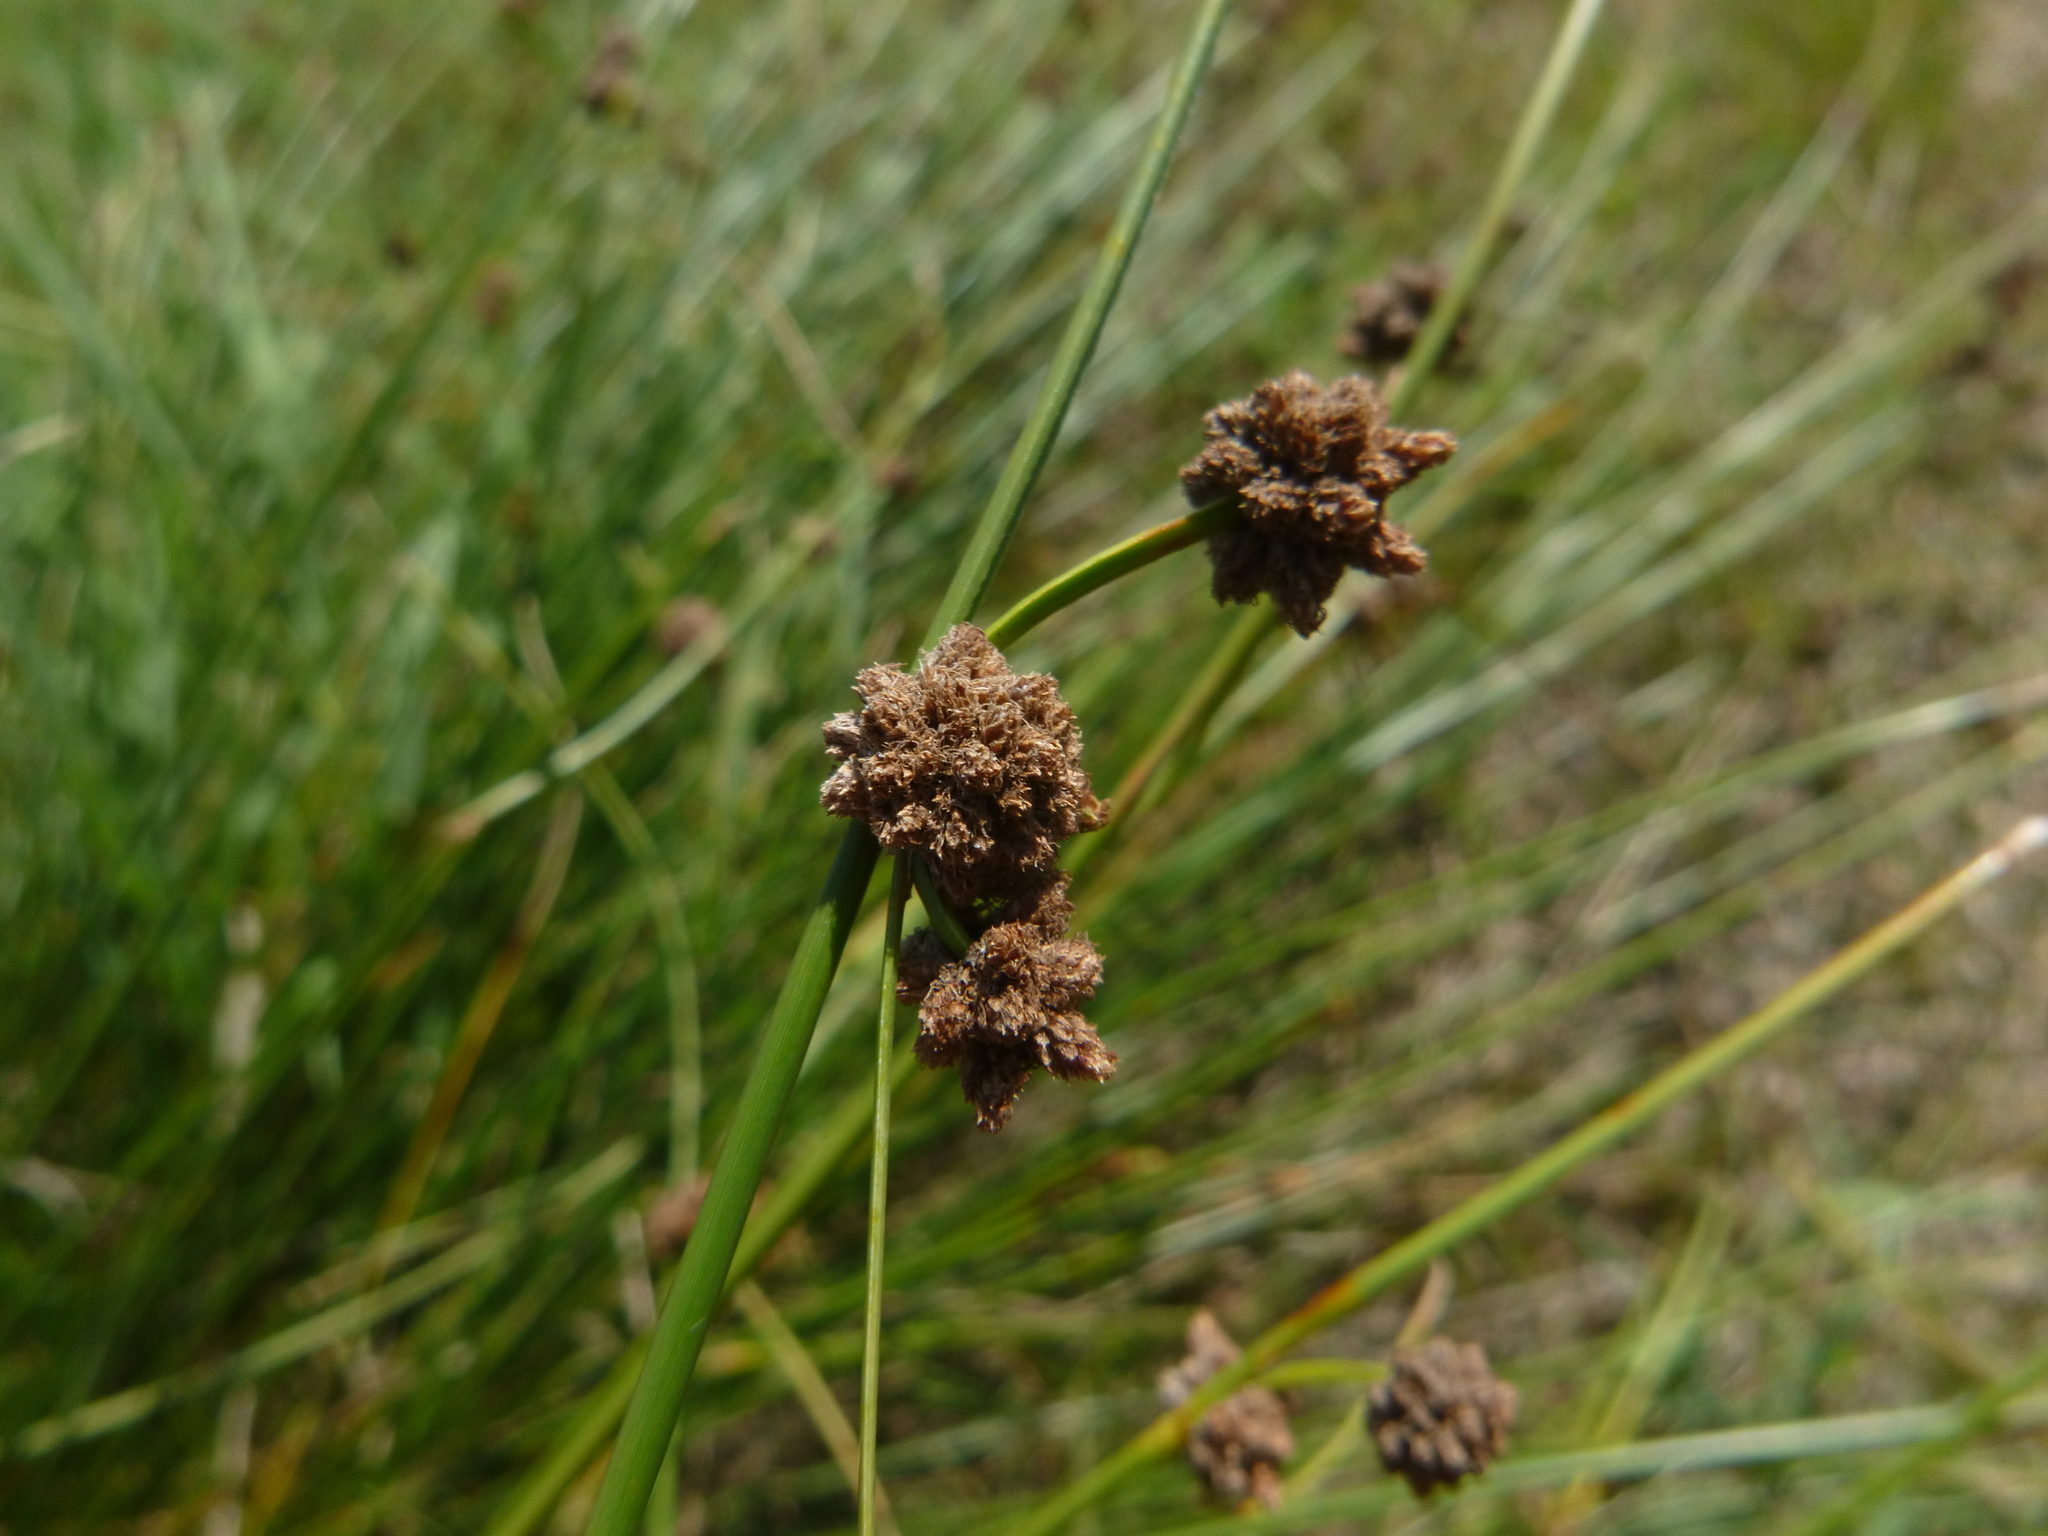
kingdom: Plantae
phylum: Tracheophyta
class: Liliopsida
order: Poales
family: Cyperaceae
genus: Scirpoides
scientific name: Scirpoides holoschoenus
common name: Round-headed club-rush
